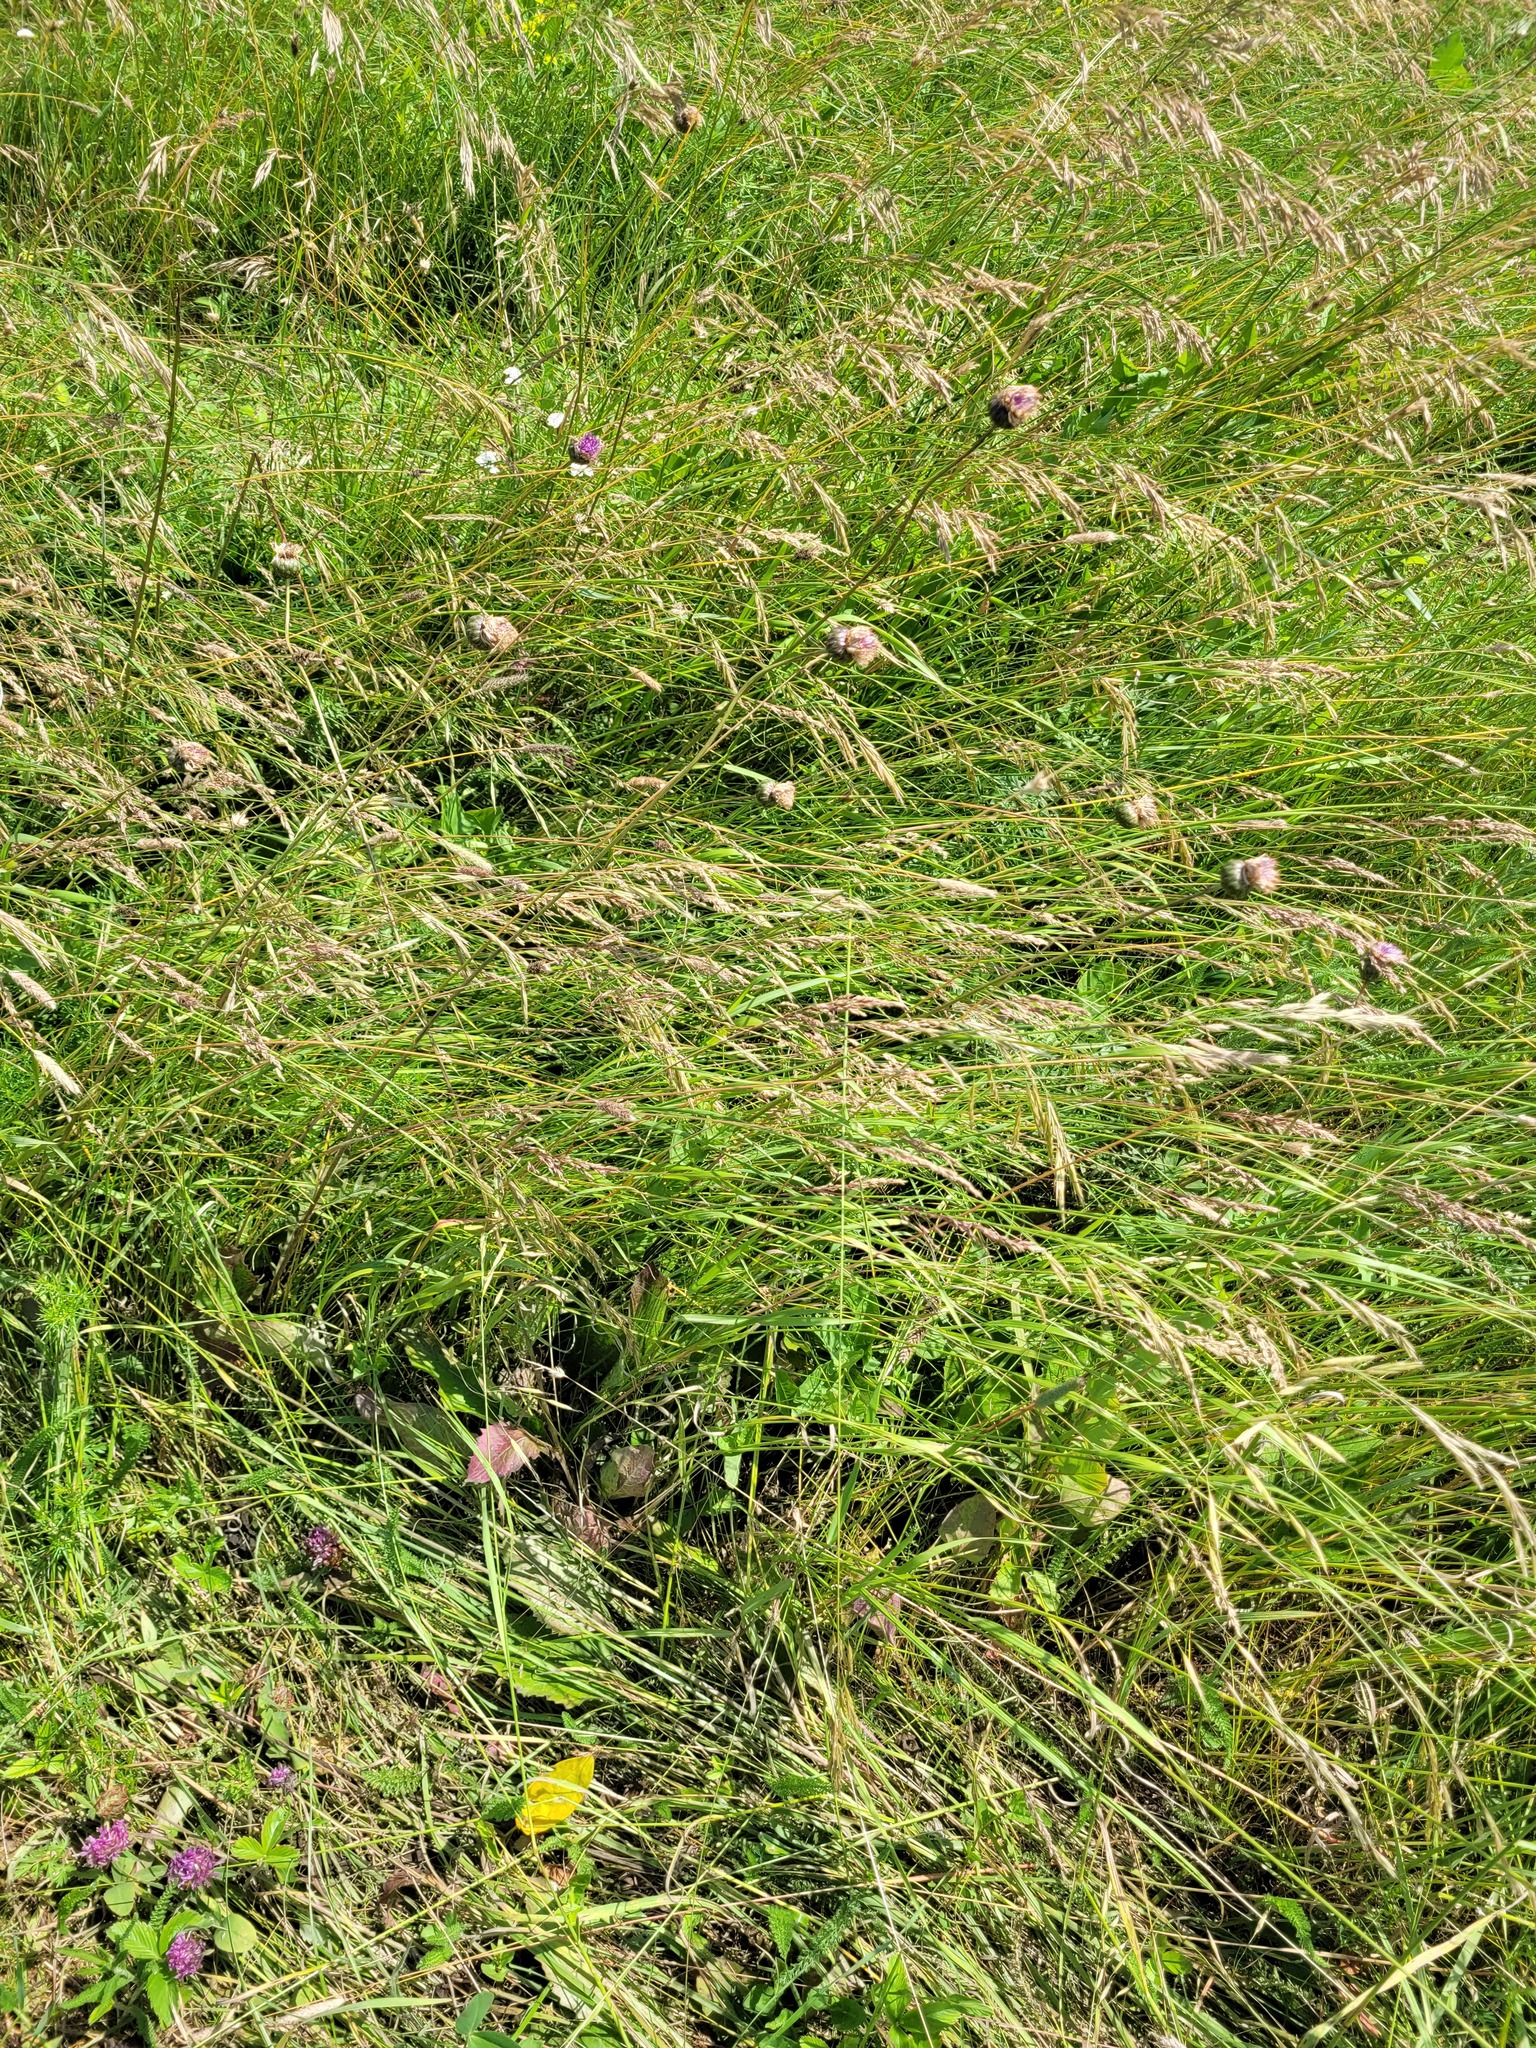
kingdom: Plantae
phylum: Tracheophyta
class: Magnoliopsida
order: Asterales
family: Asteraceae
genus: Klasea
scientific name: Klasea lycopifolia
